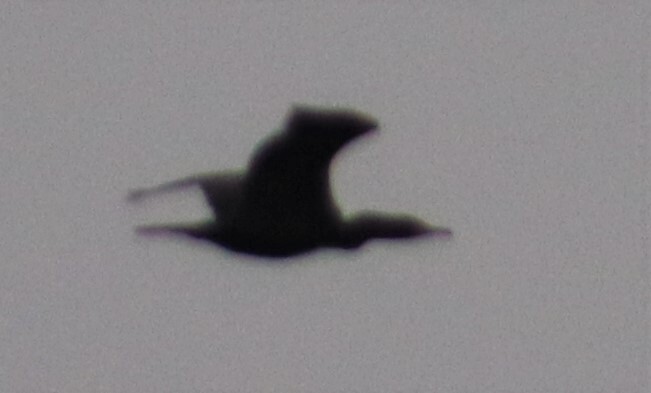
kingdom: Animalia
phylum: Chordata
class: Aves
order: Suliformes
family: Phalacrocoracidae
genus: Phalacrocorax
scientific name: Phalacrocorax auritus
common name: Double-crested cormorant
